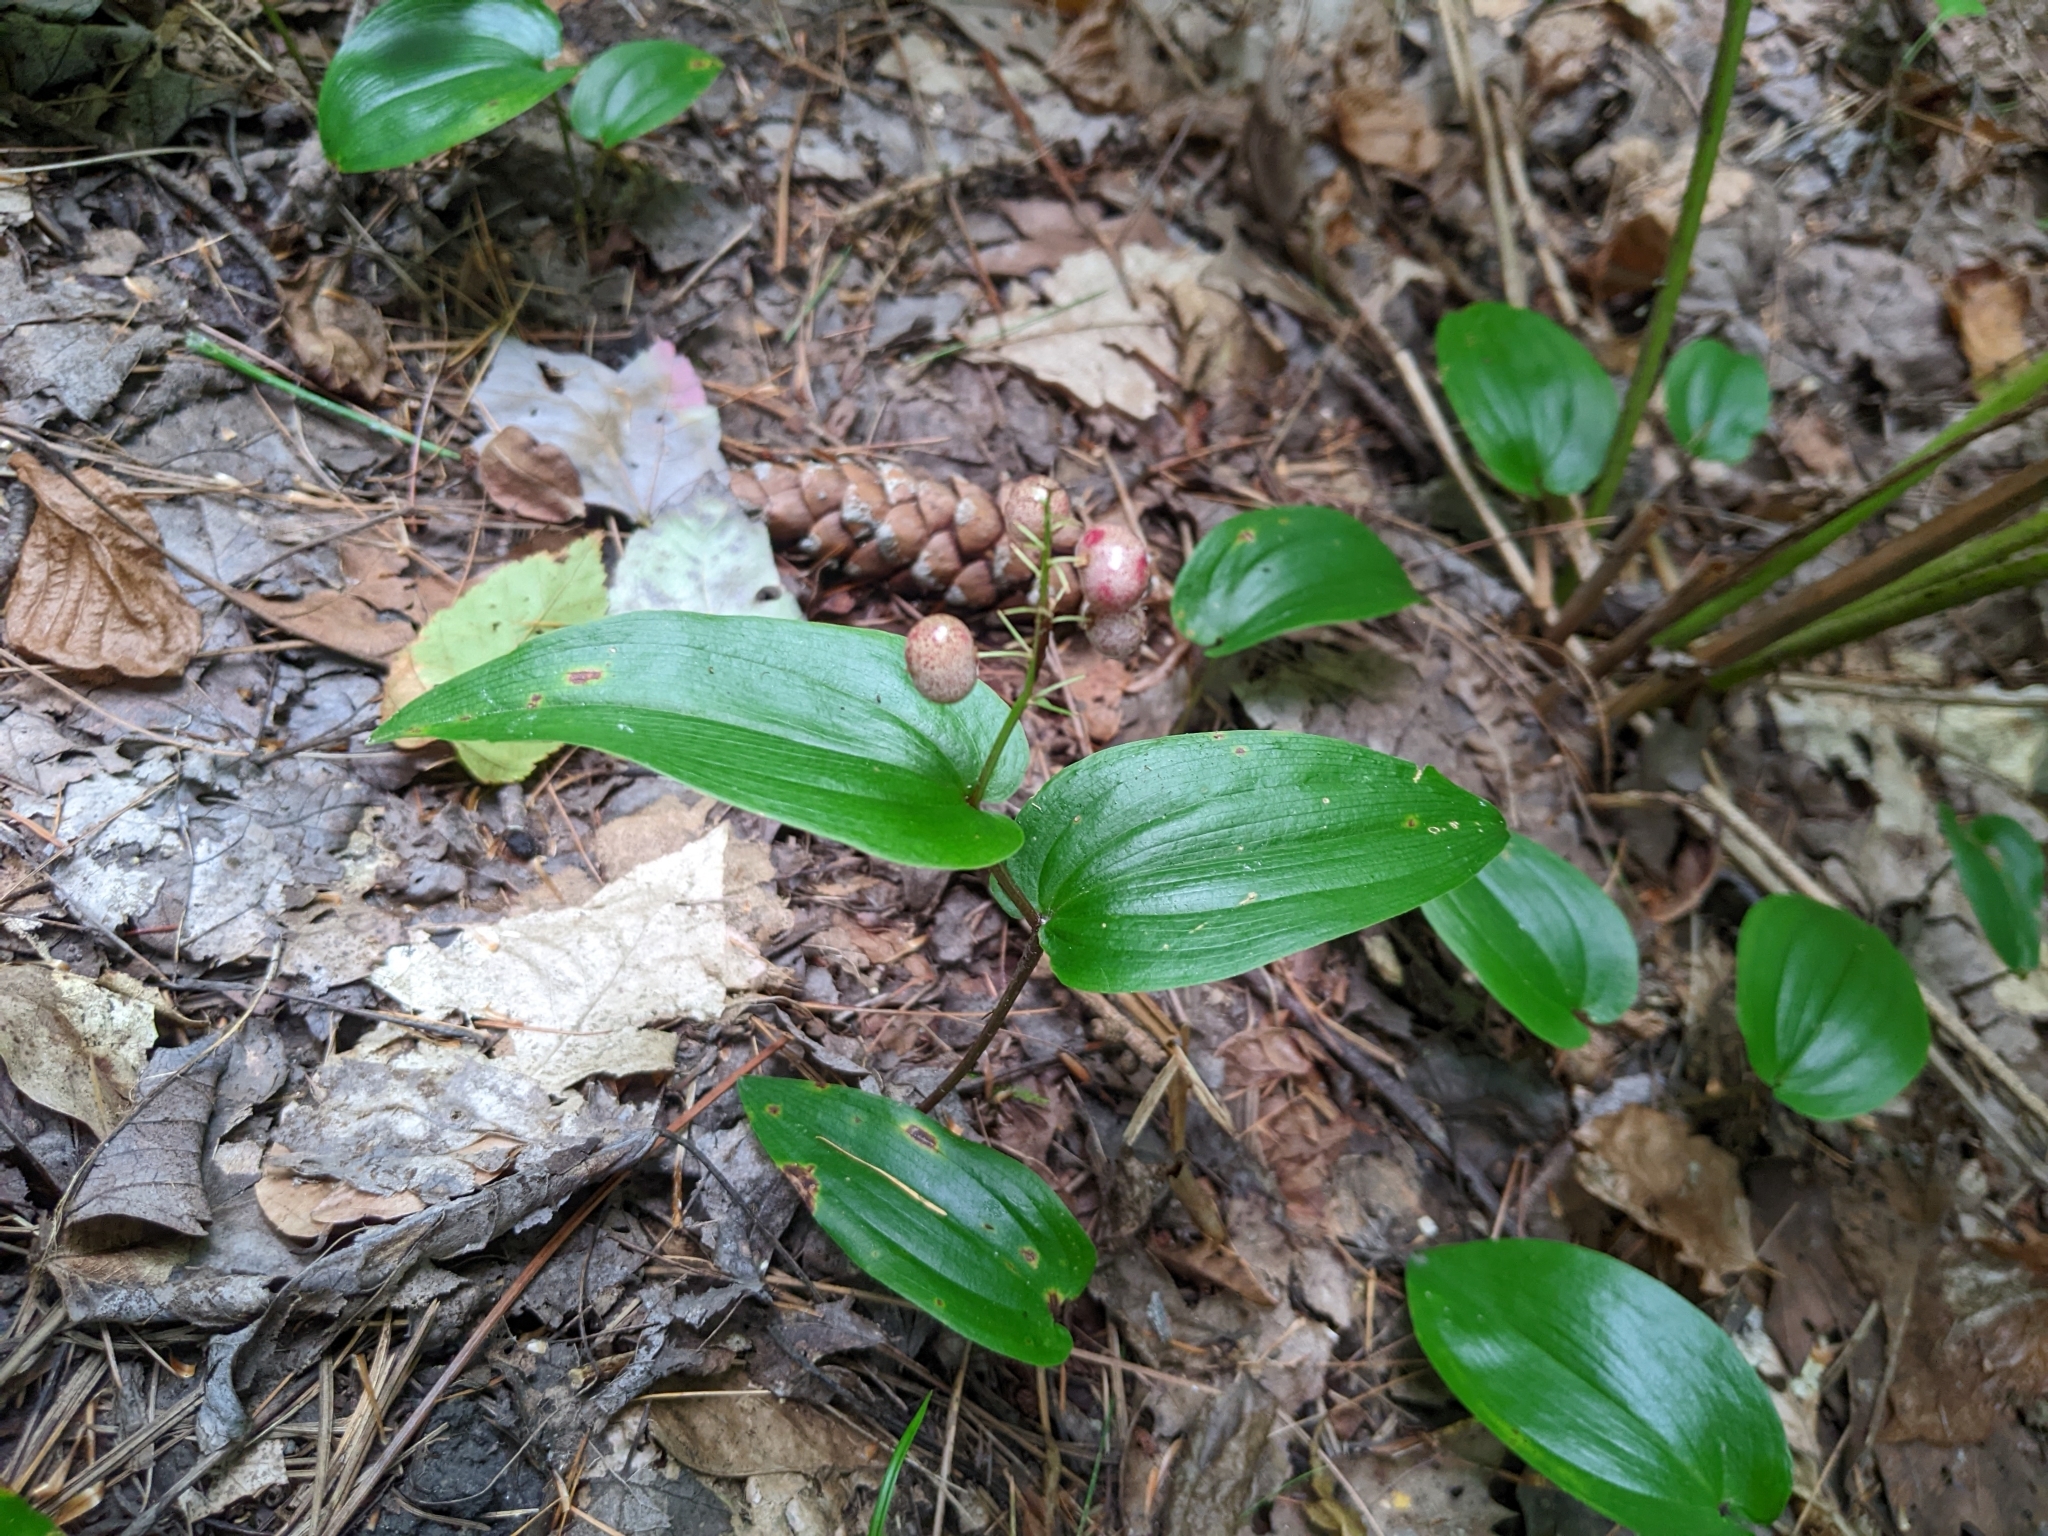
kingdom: Plantae
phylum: Tracheophyta
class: Liliopsida
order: Asparagales
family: Asparagaceae
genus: Maianthemum
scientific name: Maianthemum canadense
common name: False lily-of-the-valley
